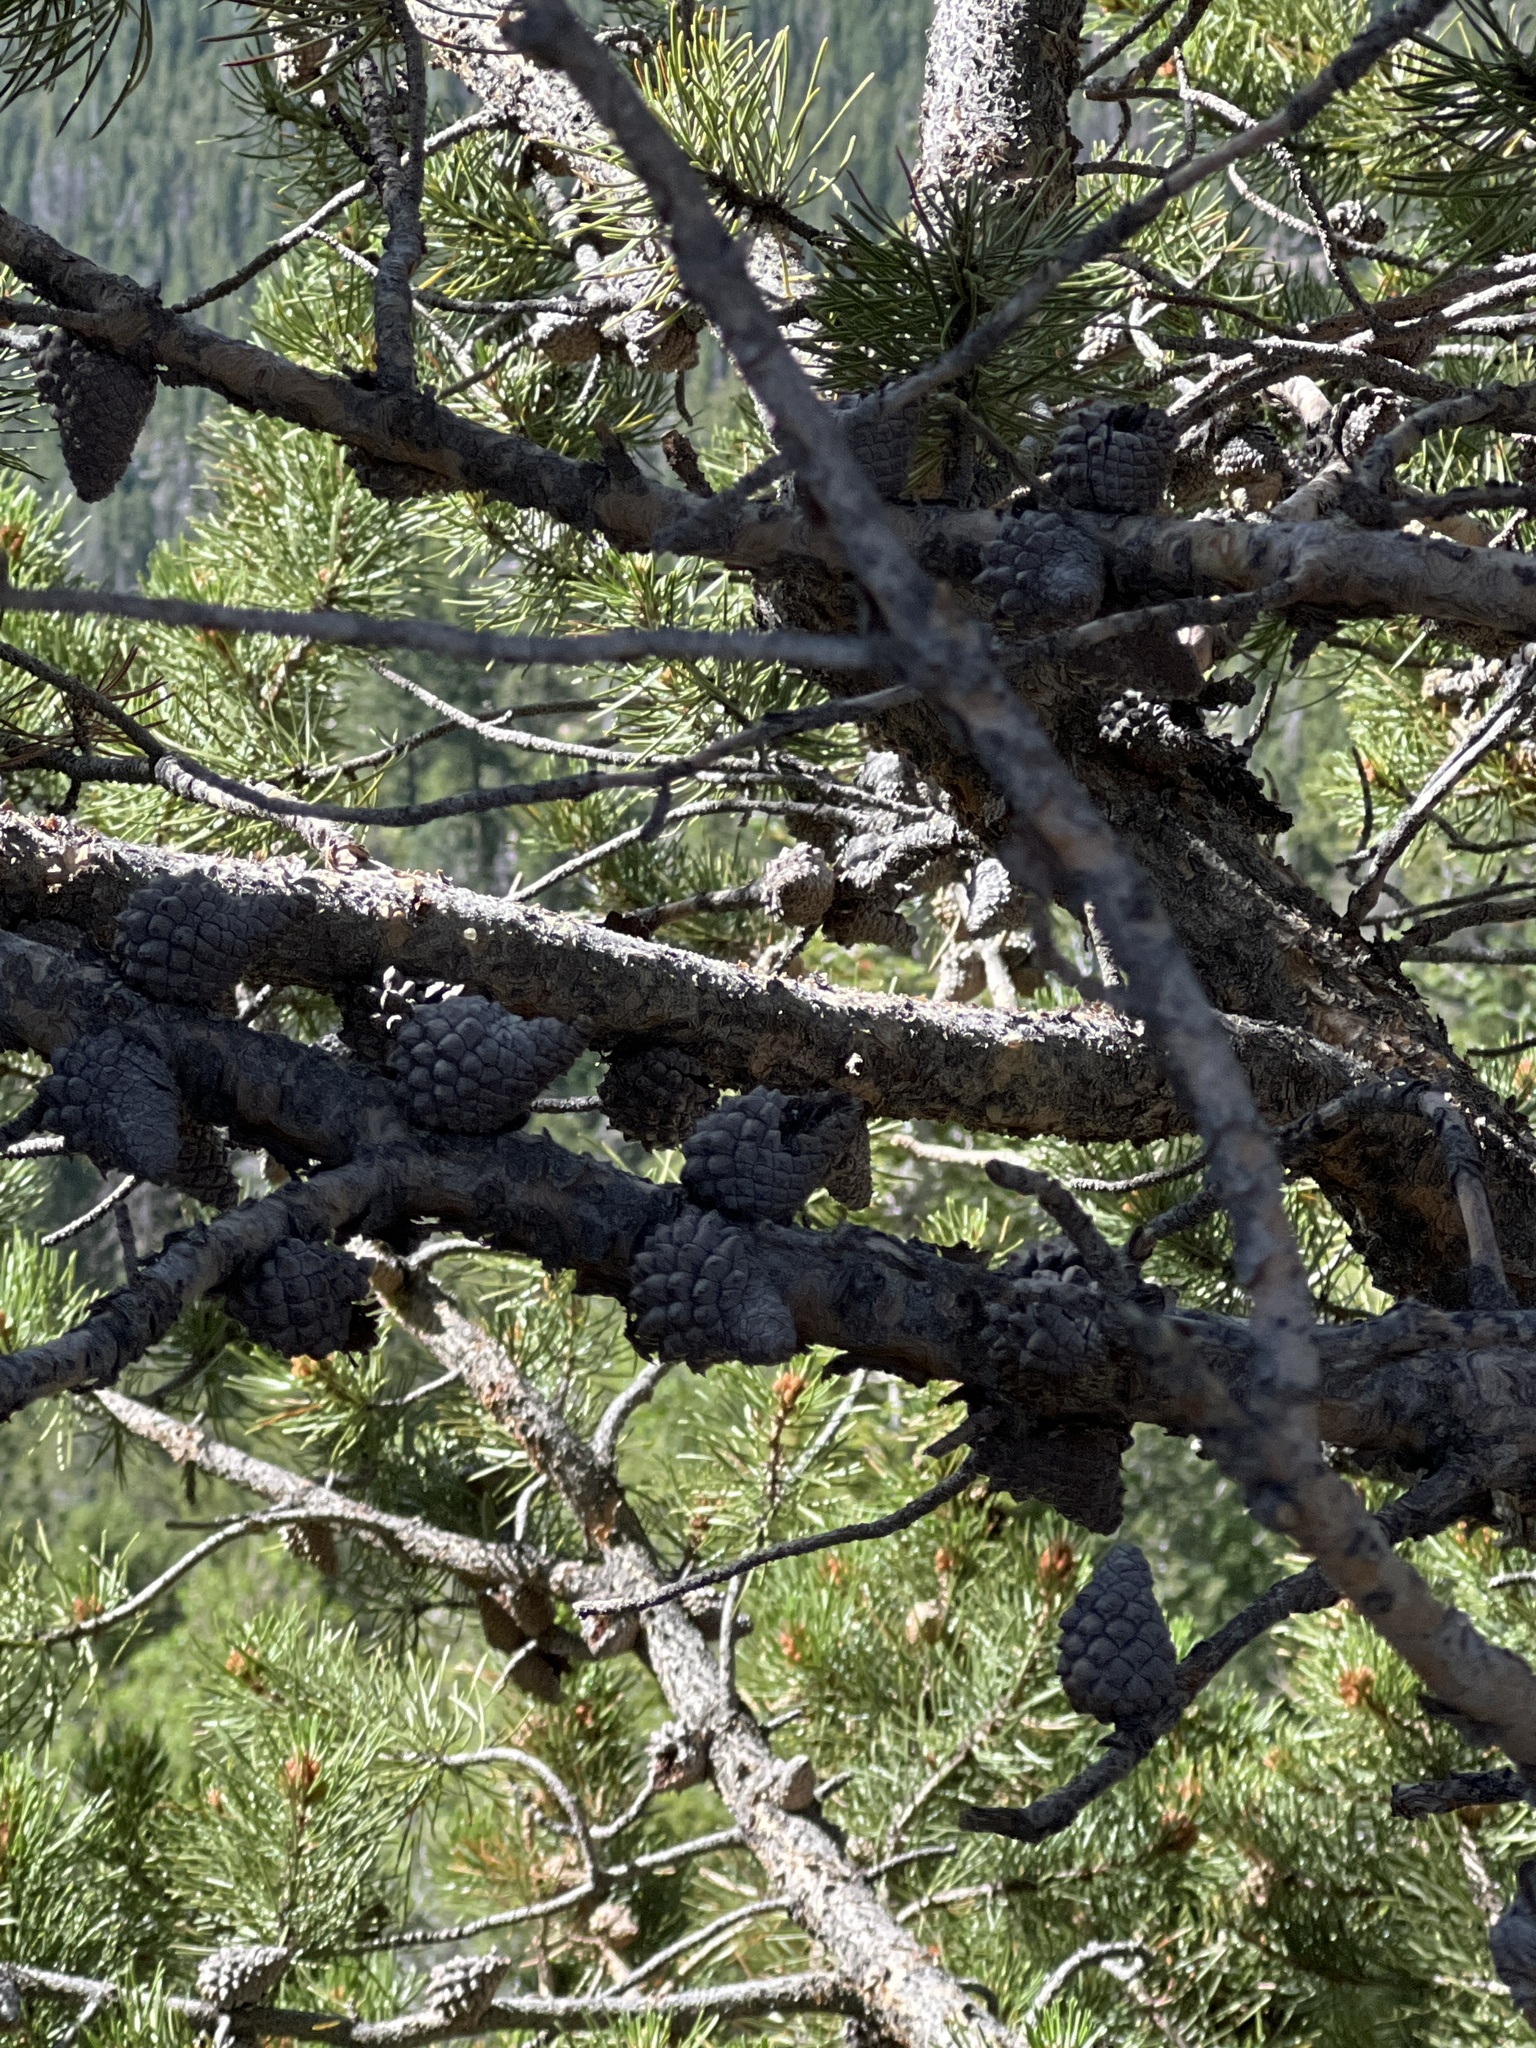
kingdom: Plantae
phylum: Tracheophyta
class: Pinopsida
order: Pinales
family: Pinaceae
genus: Pinus
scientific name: Pinus contorta
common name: Lodgepole pine
